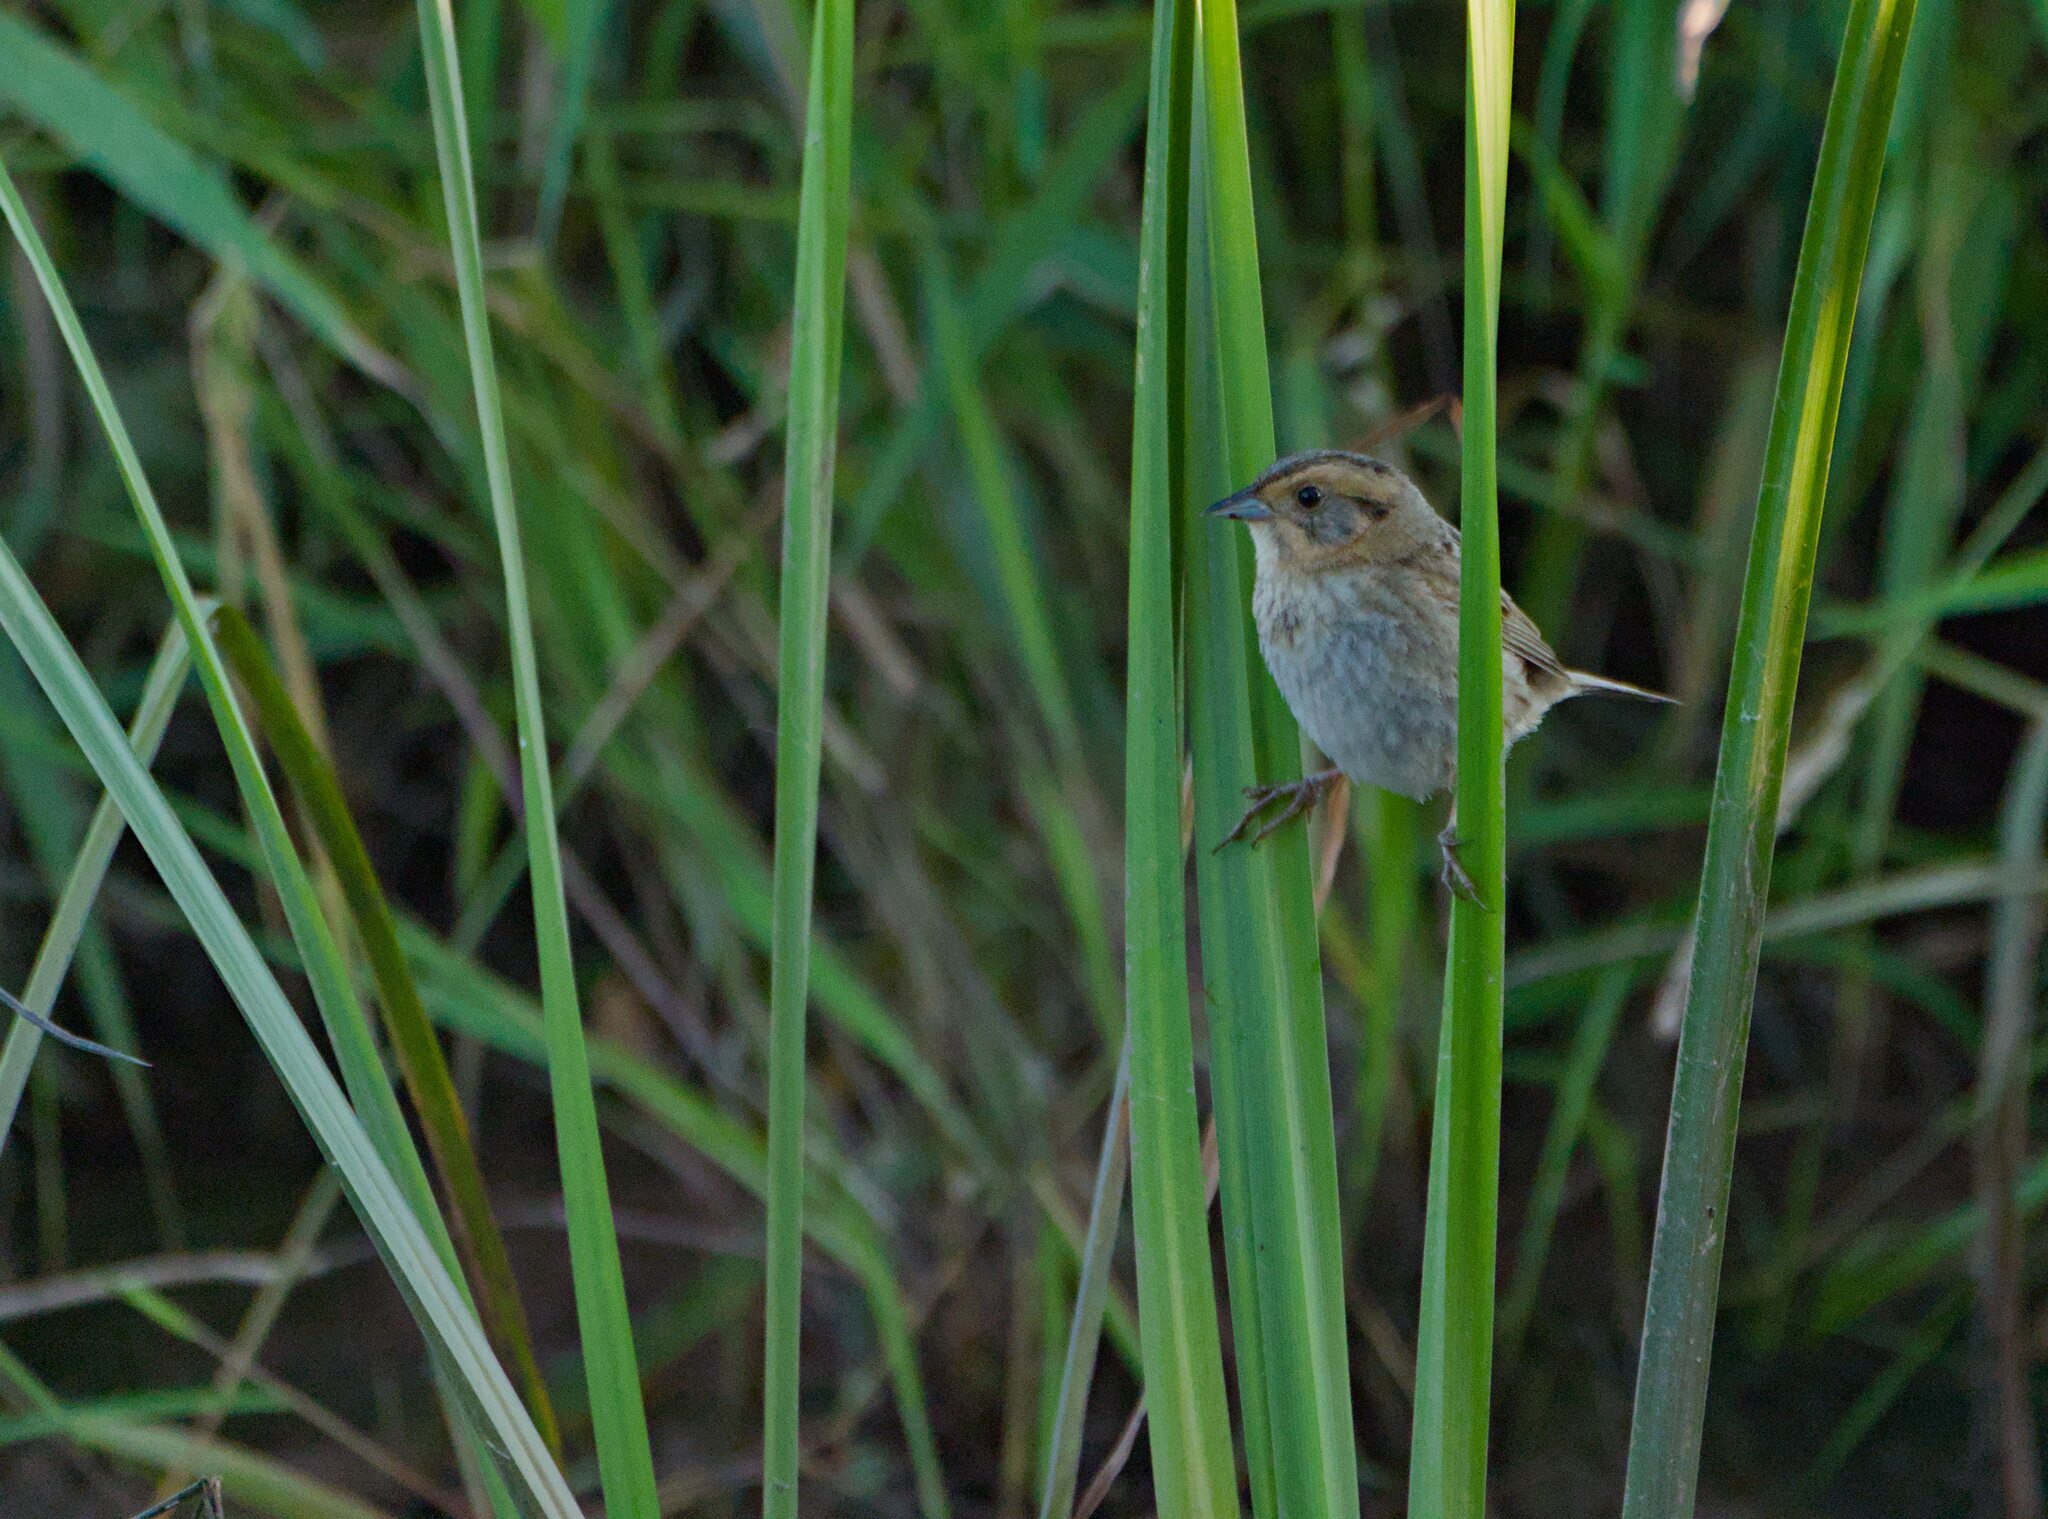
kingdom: Animalia
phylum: Chordata
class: Aves
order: Passeriformes
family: Passerellidae
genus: Ammospiza
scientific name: Ammospiza nelsoni
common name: Nelson's sparrow
